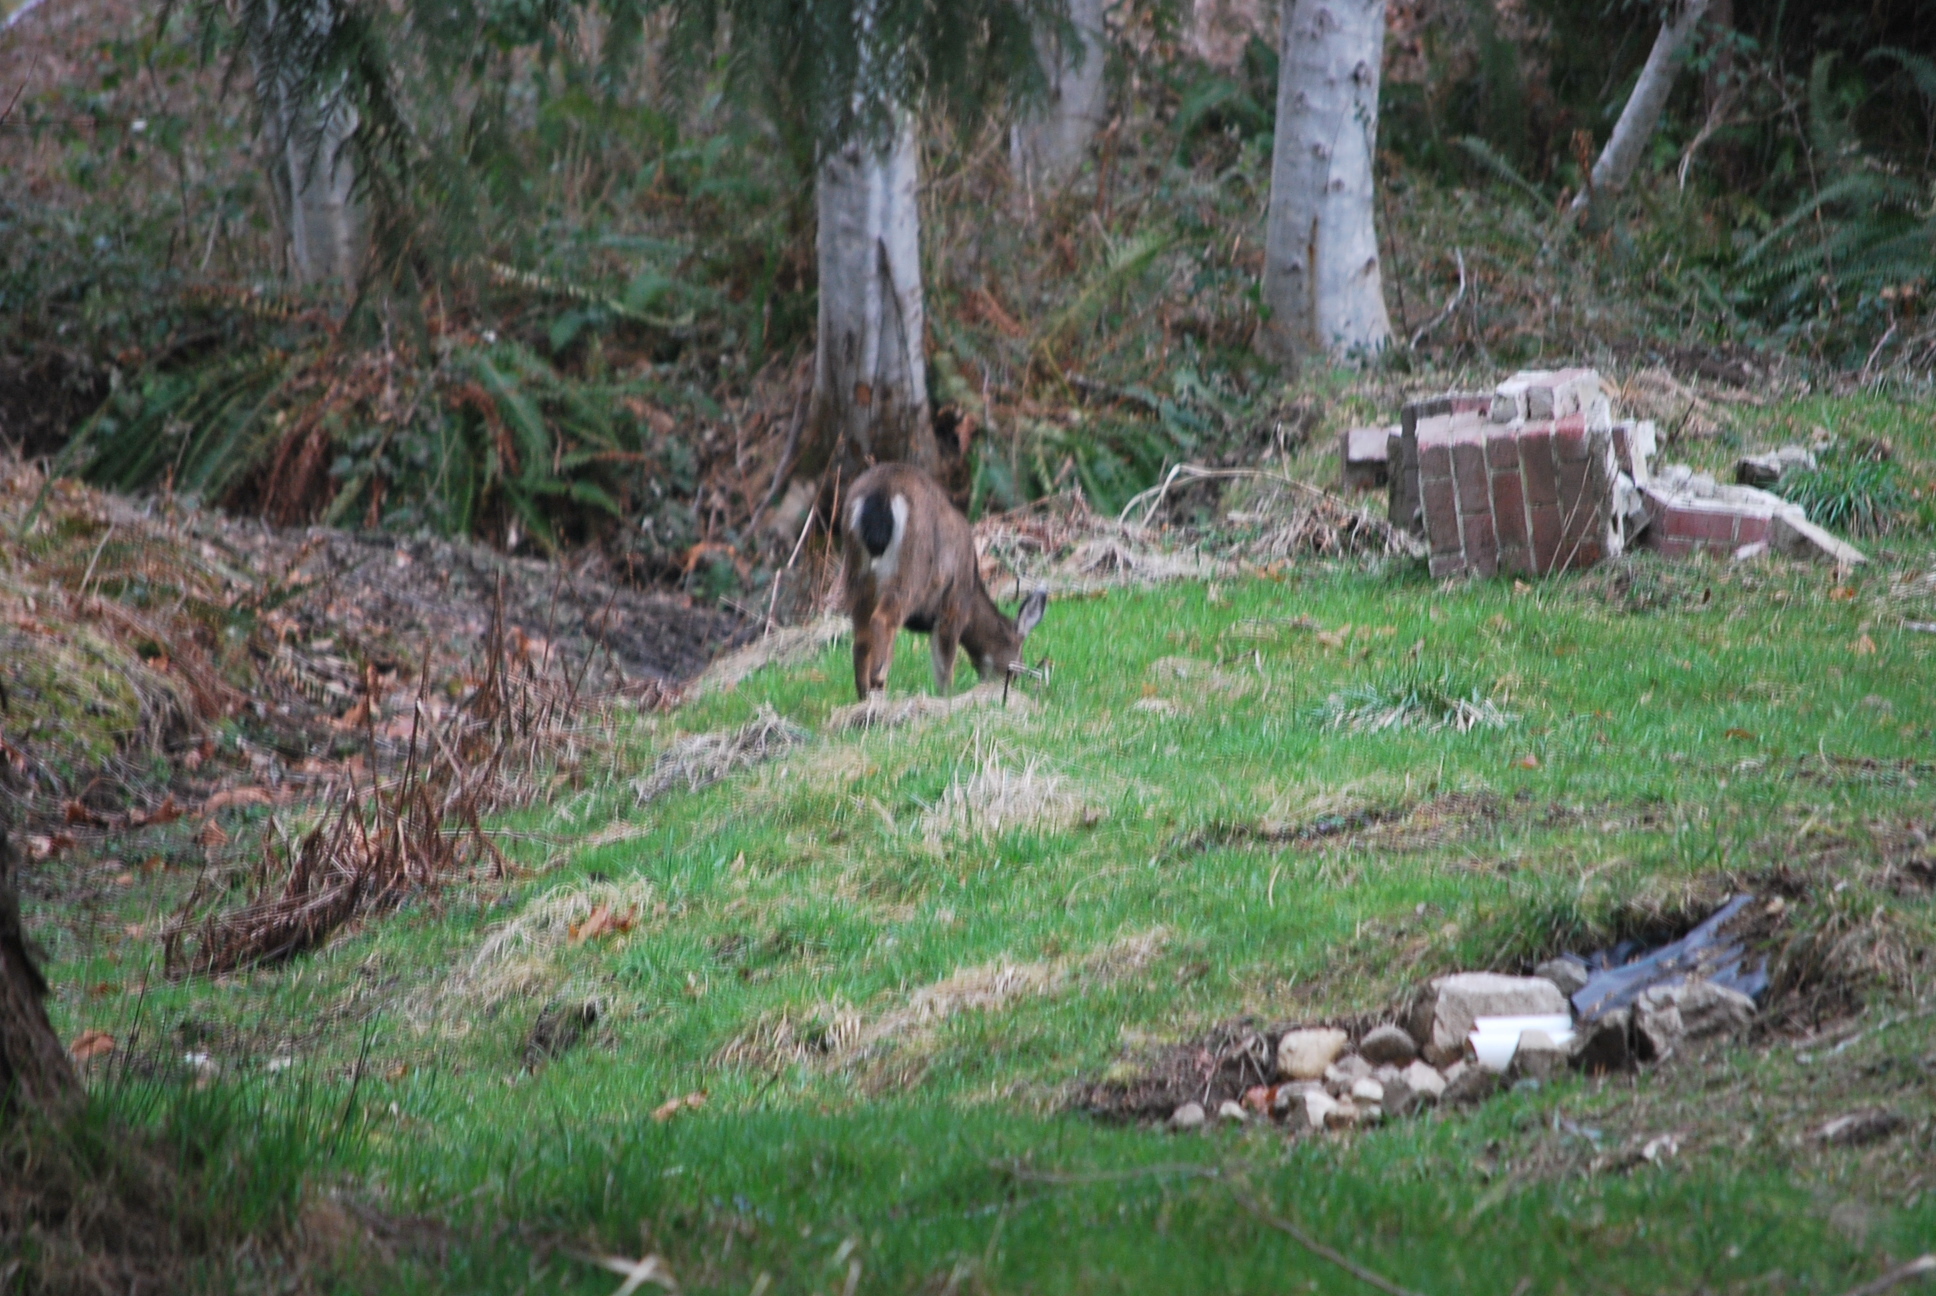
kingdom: Animalia
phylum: Chordata
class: Mammalia
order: Artiodactyla
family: Cervidae
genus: Odocoileus
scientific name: Odocoileus hemionus
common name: Mule deer
